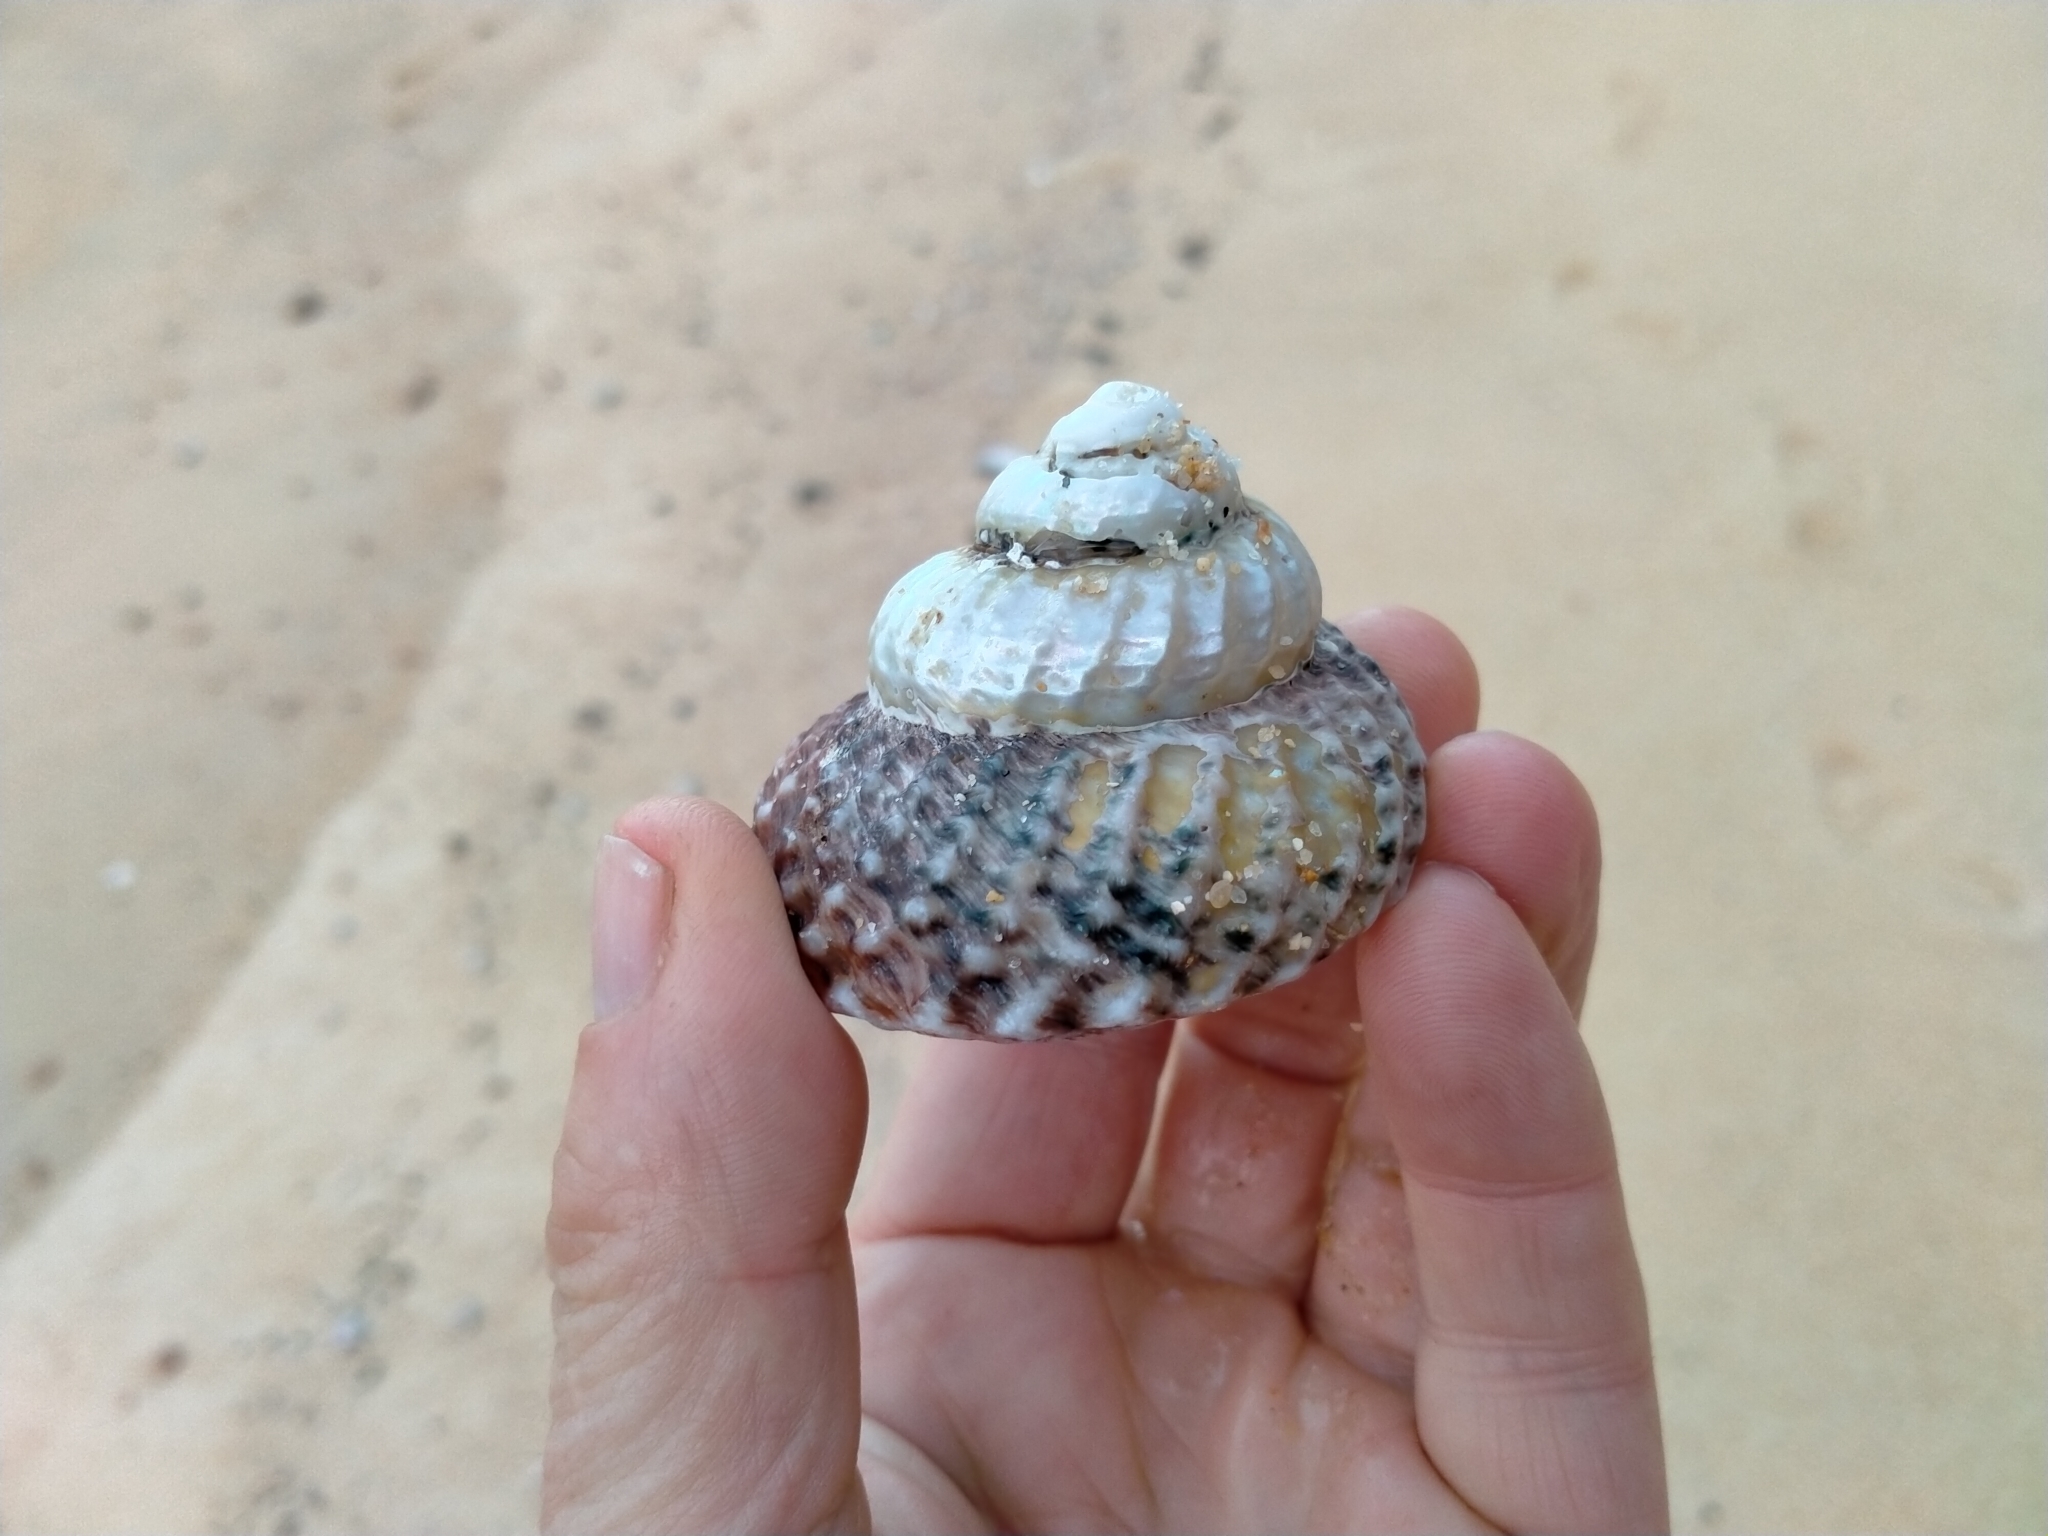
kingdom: Animalia
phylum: Mollusca
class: Gastropoda
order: Trochida
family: Turbinidae
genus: Cookia
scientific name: Cookia sulcata
